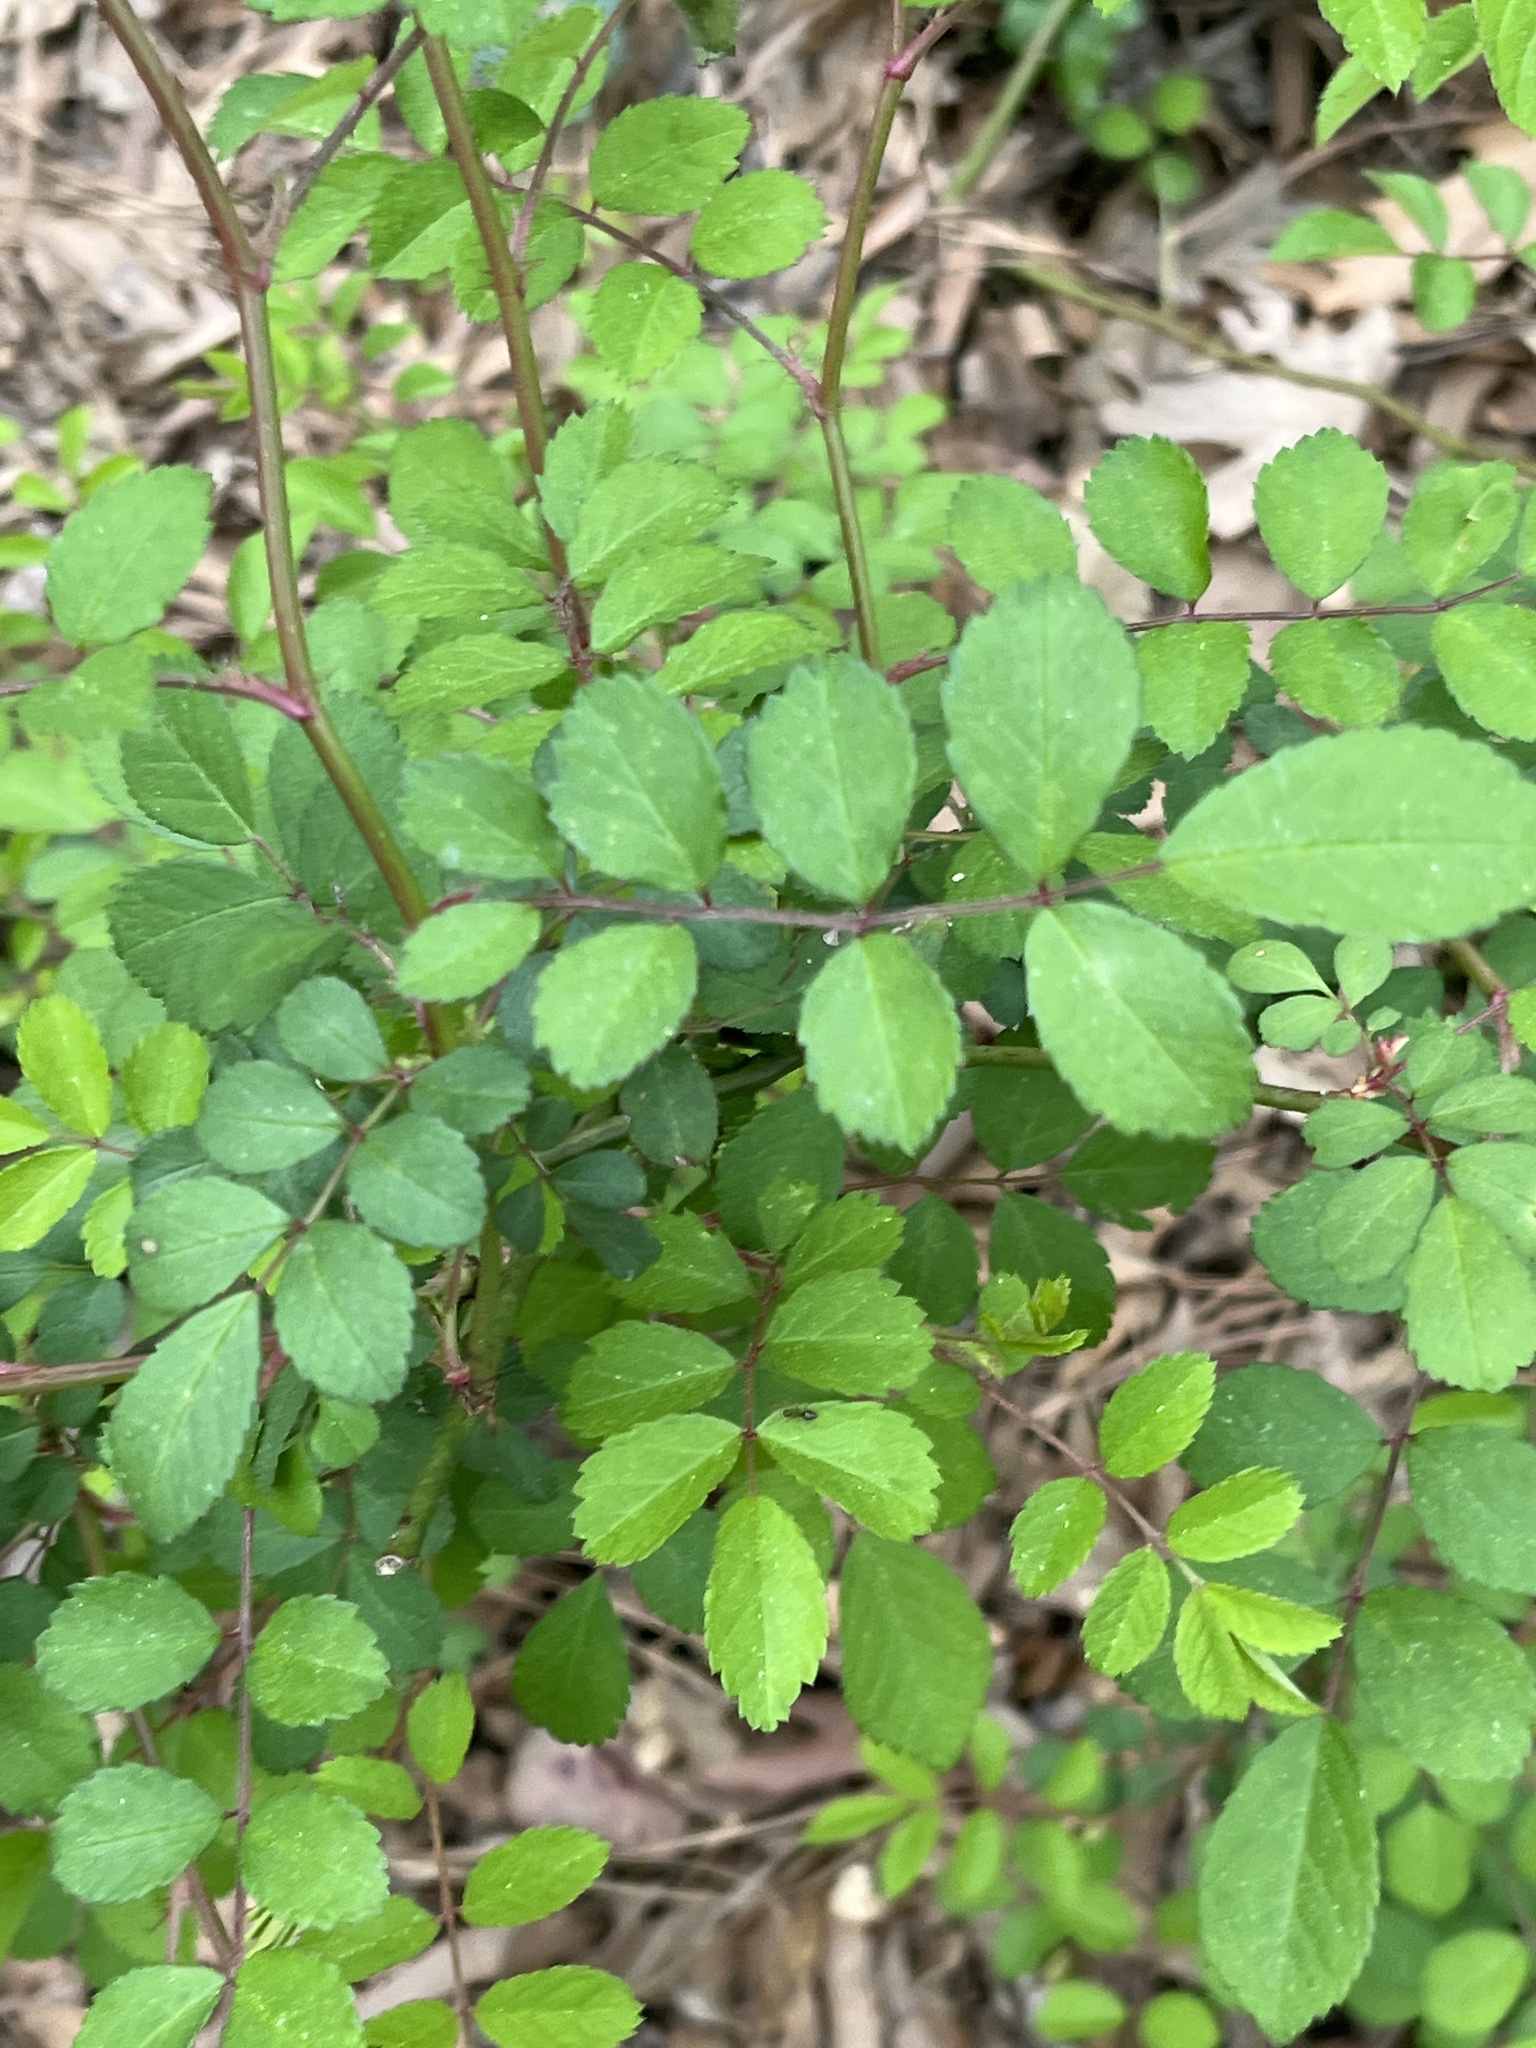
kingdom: Plantae
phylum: Tracheophyta
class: Magnoliopsida
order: Rosales
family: Rosaceae
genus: Rosa
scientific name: Rosa multiflora
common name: Multiflora rose
